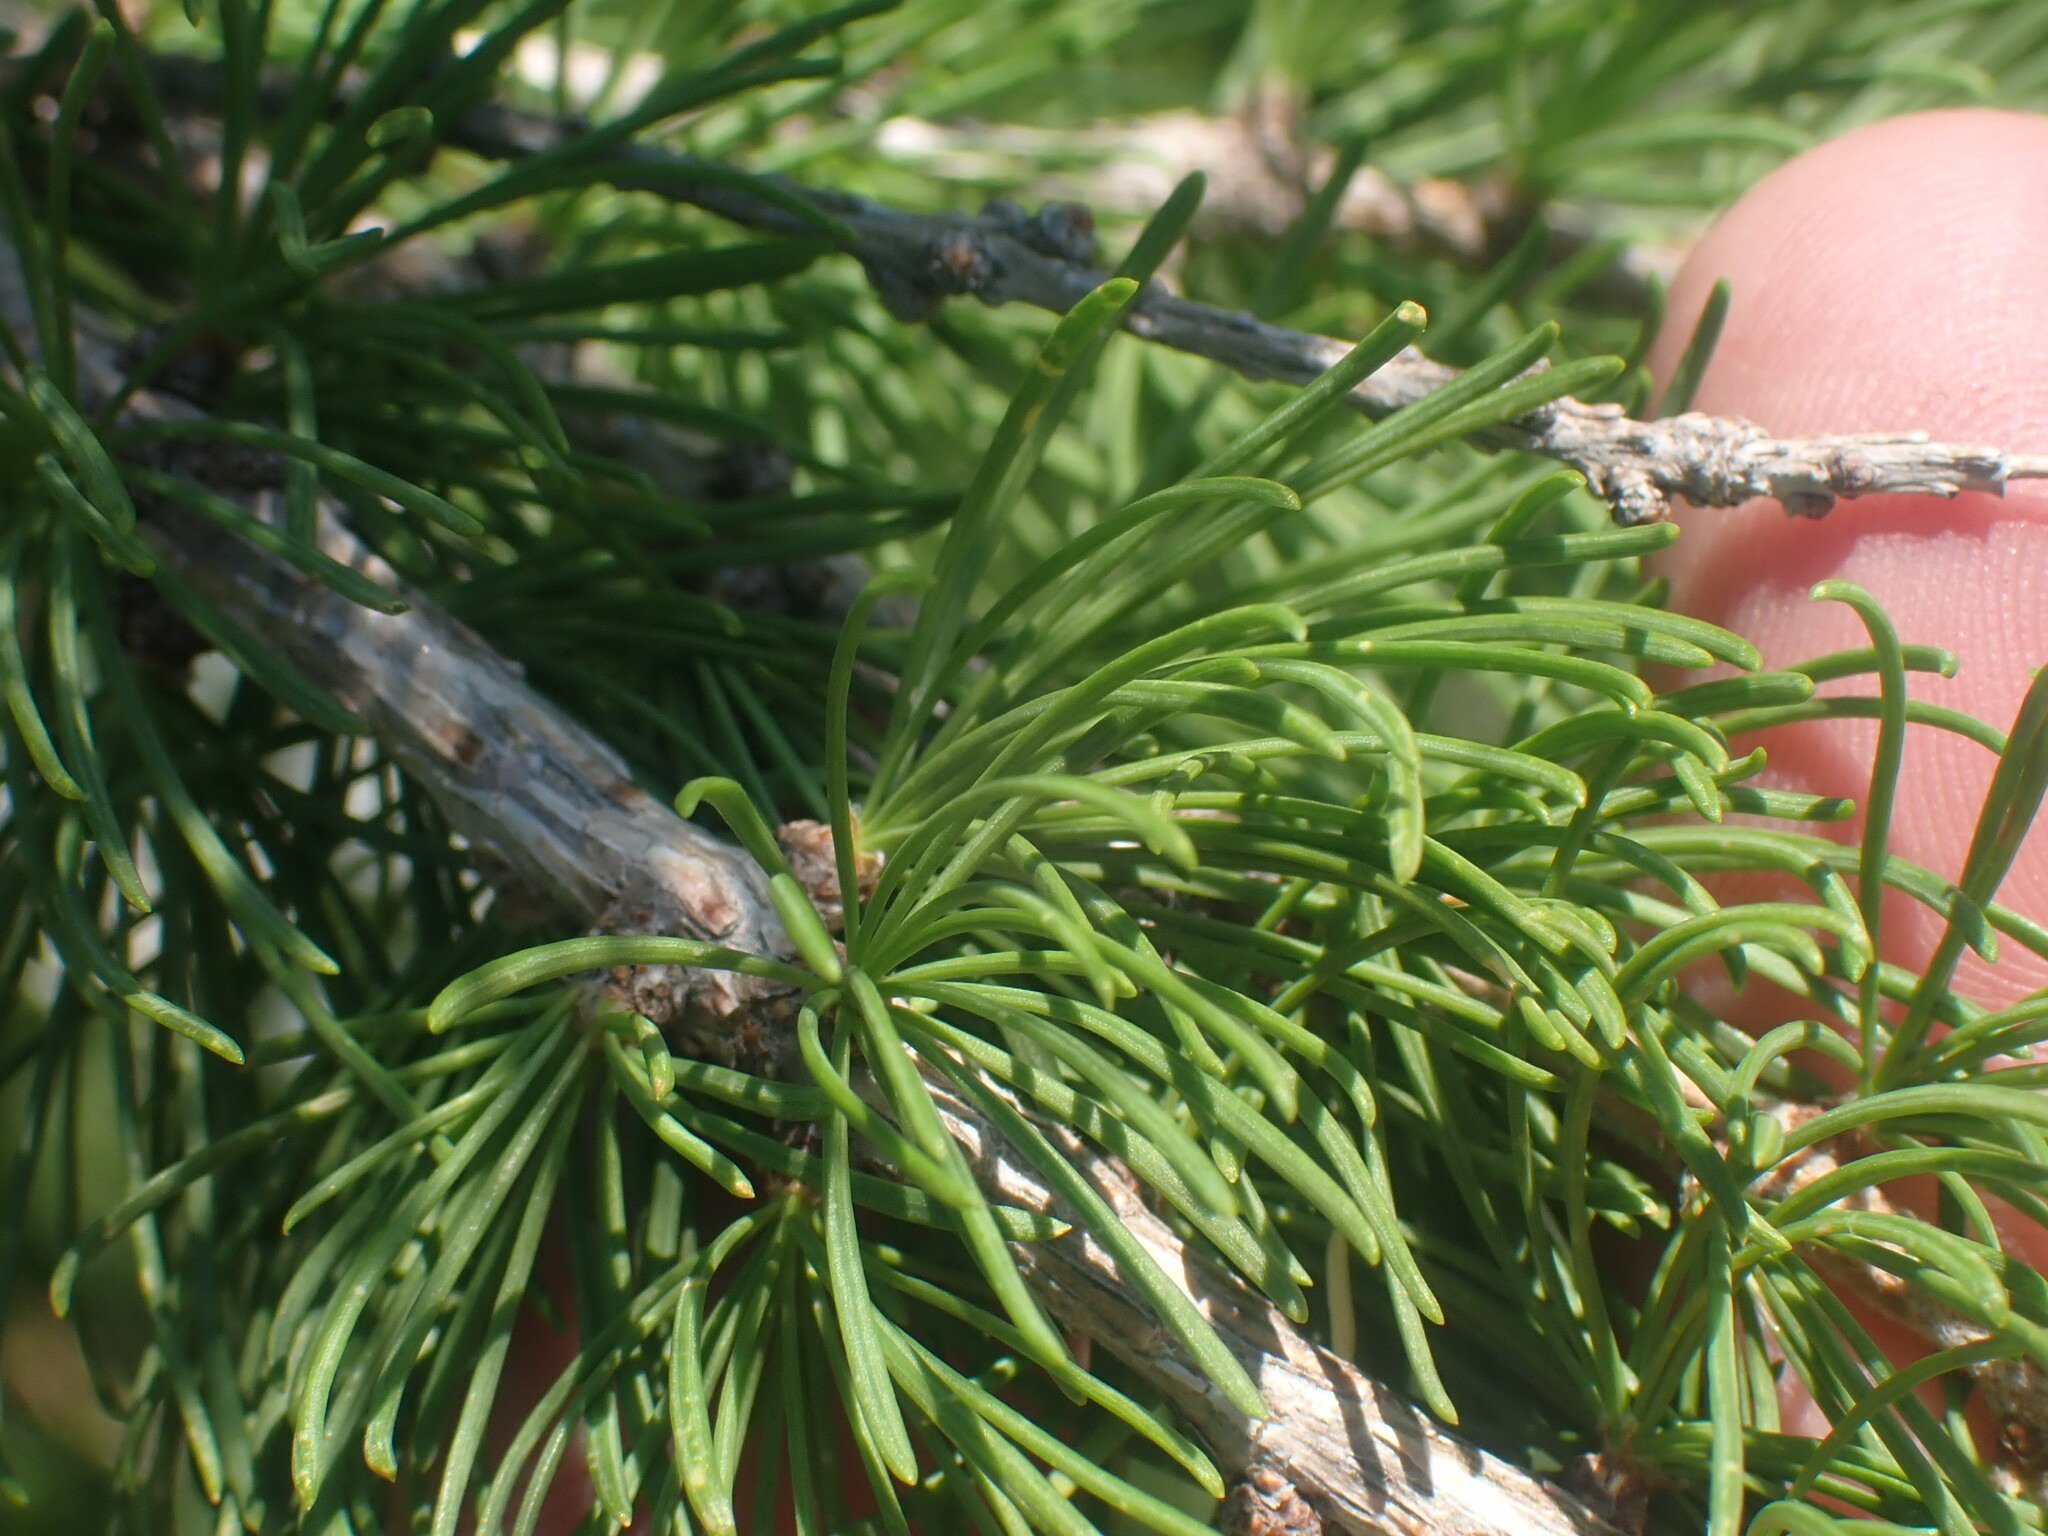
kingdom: Plantae
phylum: Tracheophyta
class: Pinopsida
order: Pinales
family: Pinaceae
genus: Larix
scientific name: Larix lyallii
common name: Alpine larch
